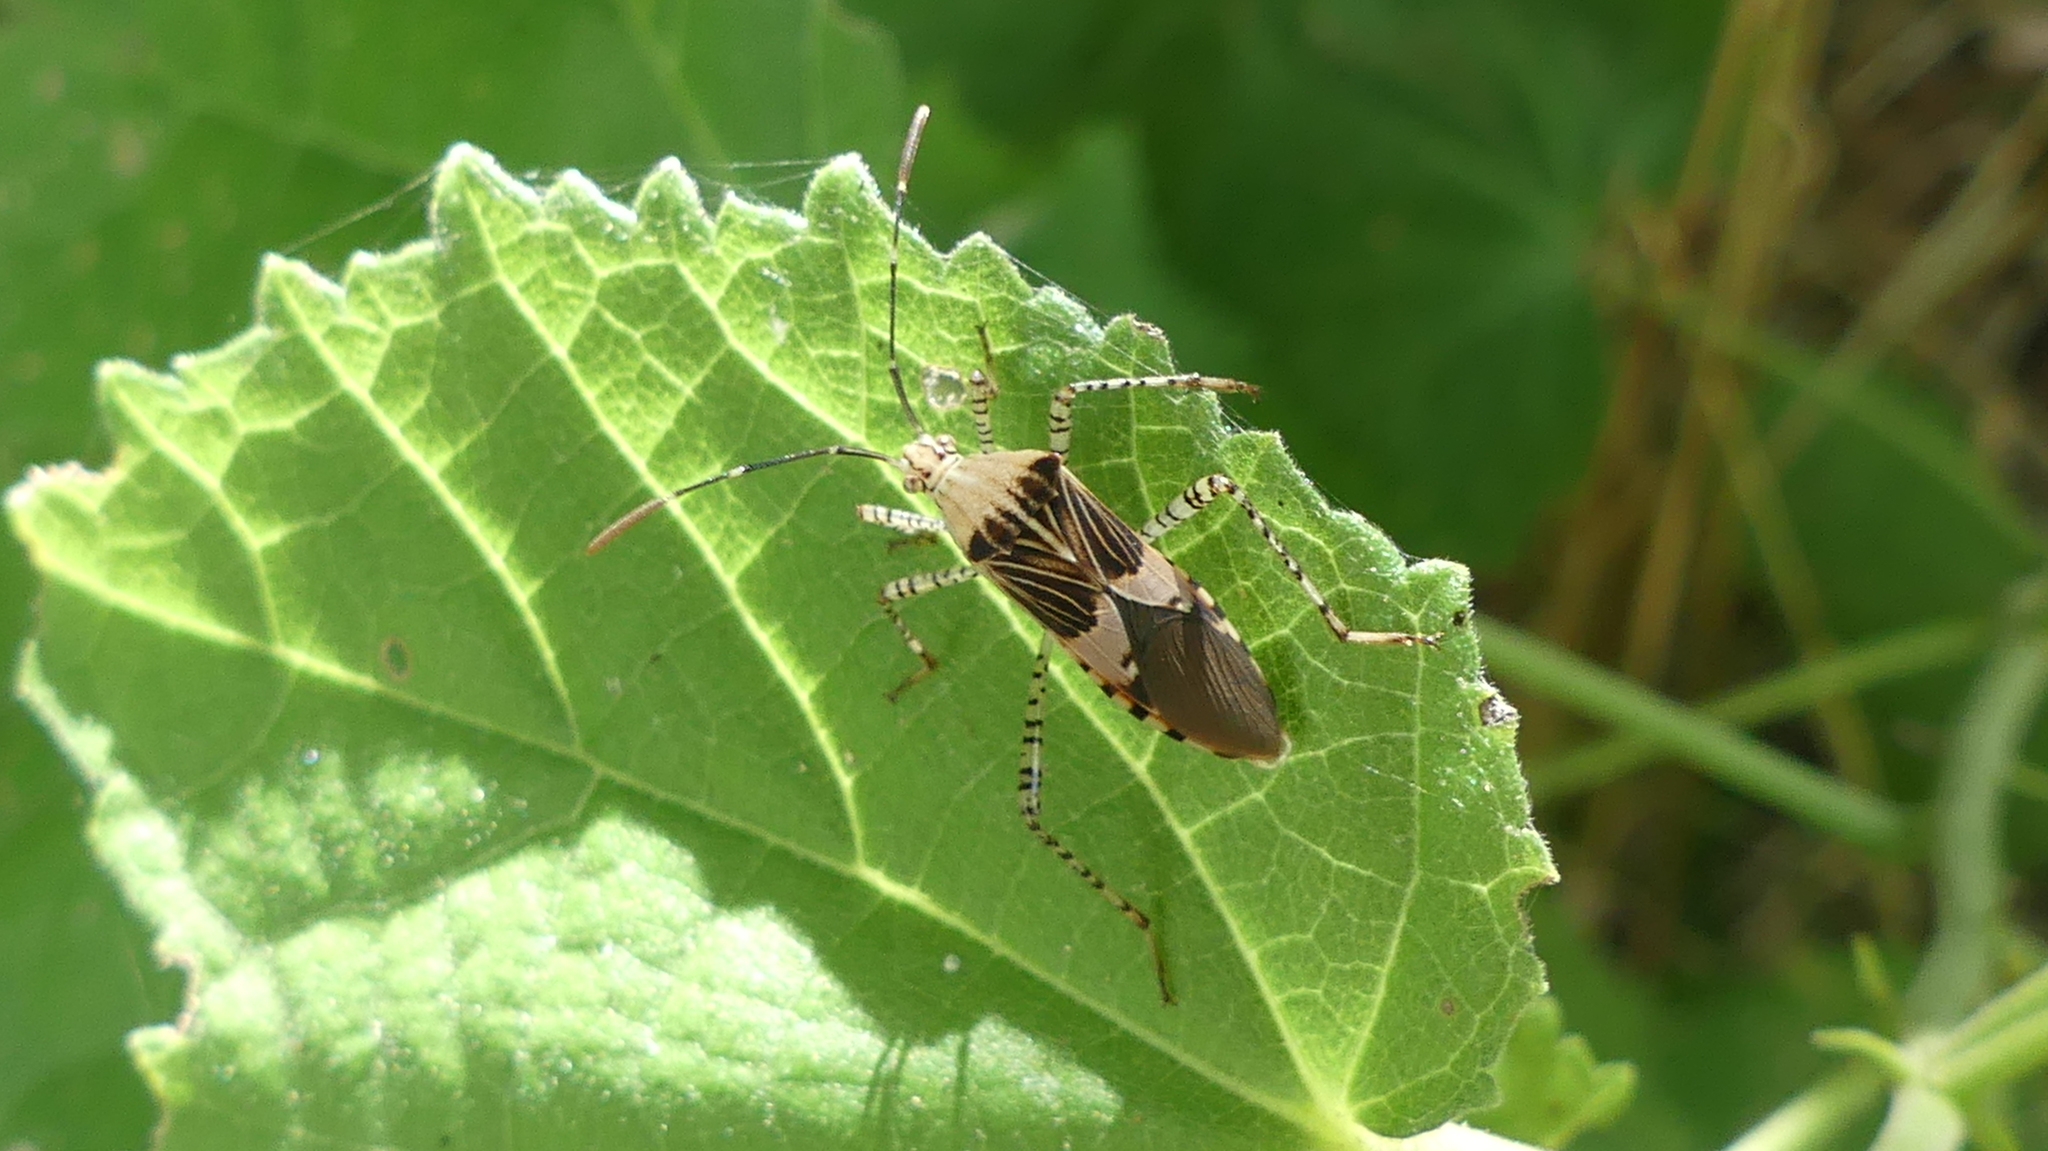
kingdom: Animalia
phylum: Arthropoda
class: Insecta
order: Hemiptera
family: Coreidae
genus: Hypselonotus
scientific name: Hypselonotus punctiventris
